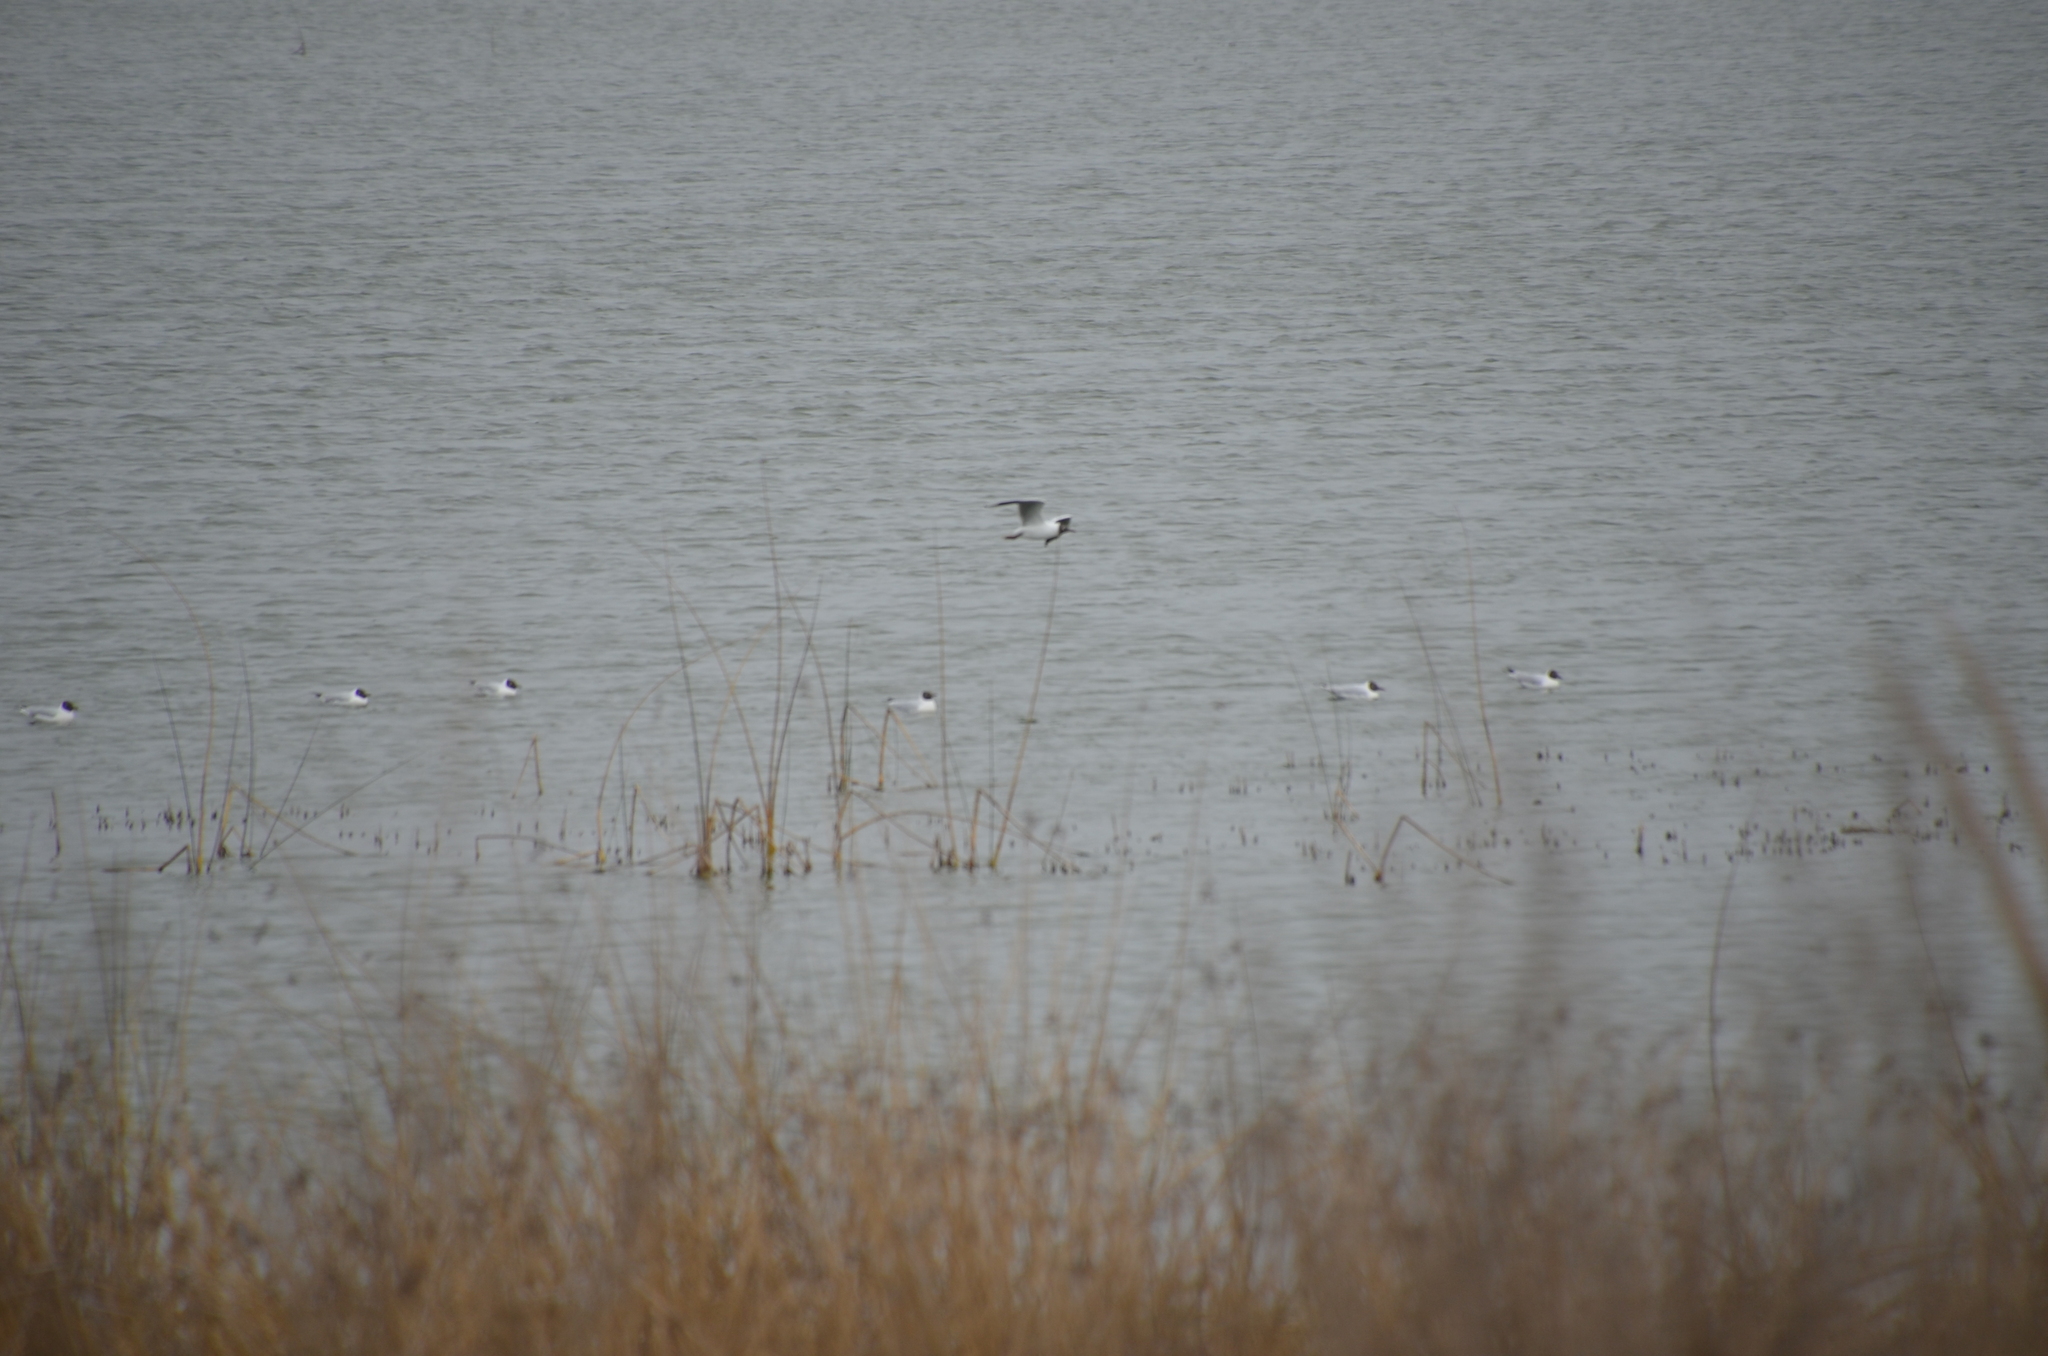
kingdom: Animalia
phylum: Chordata
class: Aves
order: Charadriiformes
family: Laridae
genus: Chroicocephalus
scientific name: Chroicocephalus maculipennis
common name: Brown-hooded gull
